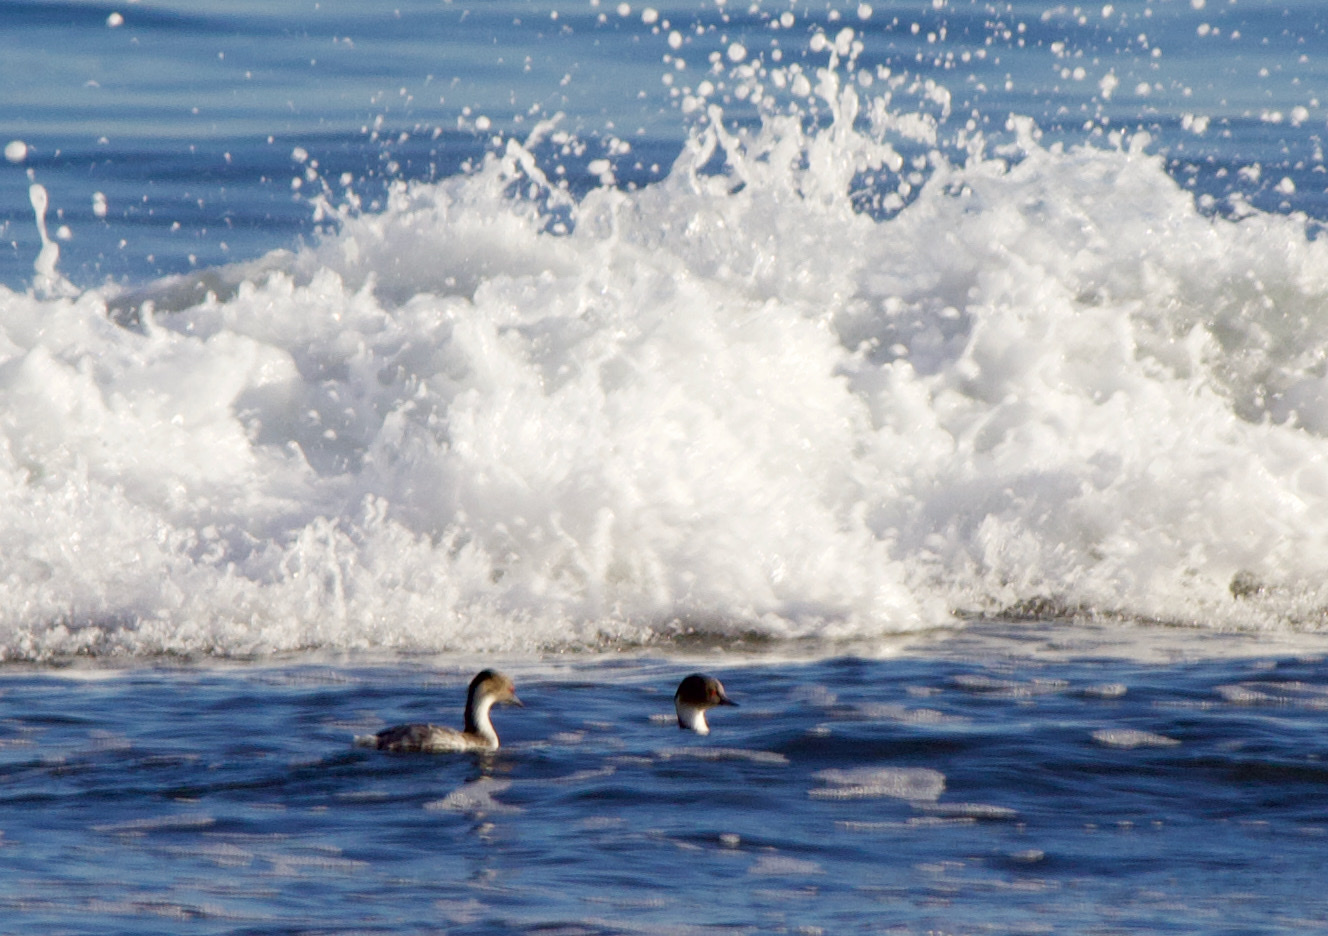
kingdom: Animalia
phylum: Chordata
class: Aves
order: Podicipediformes
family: Podicipedidae
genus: Podiceps
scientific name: Podiceps occipitalis
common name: Silvery grebe
